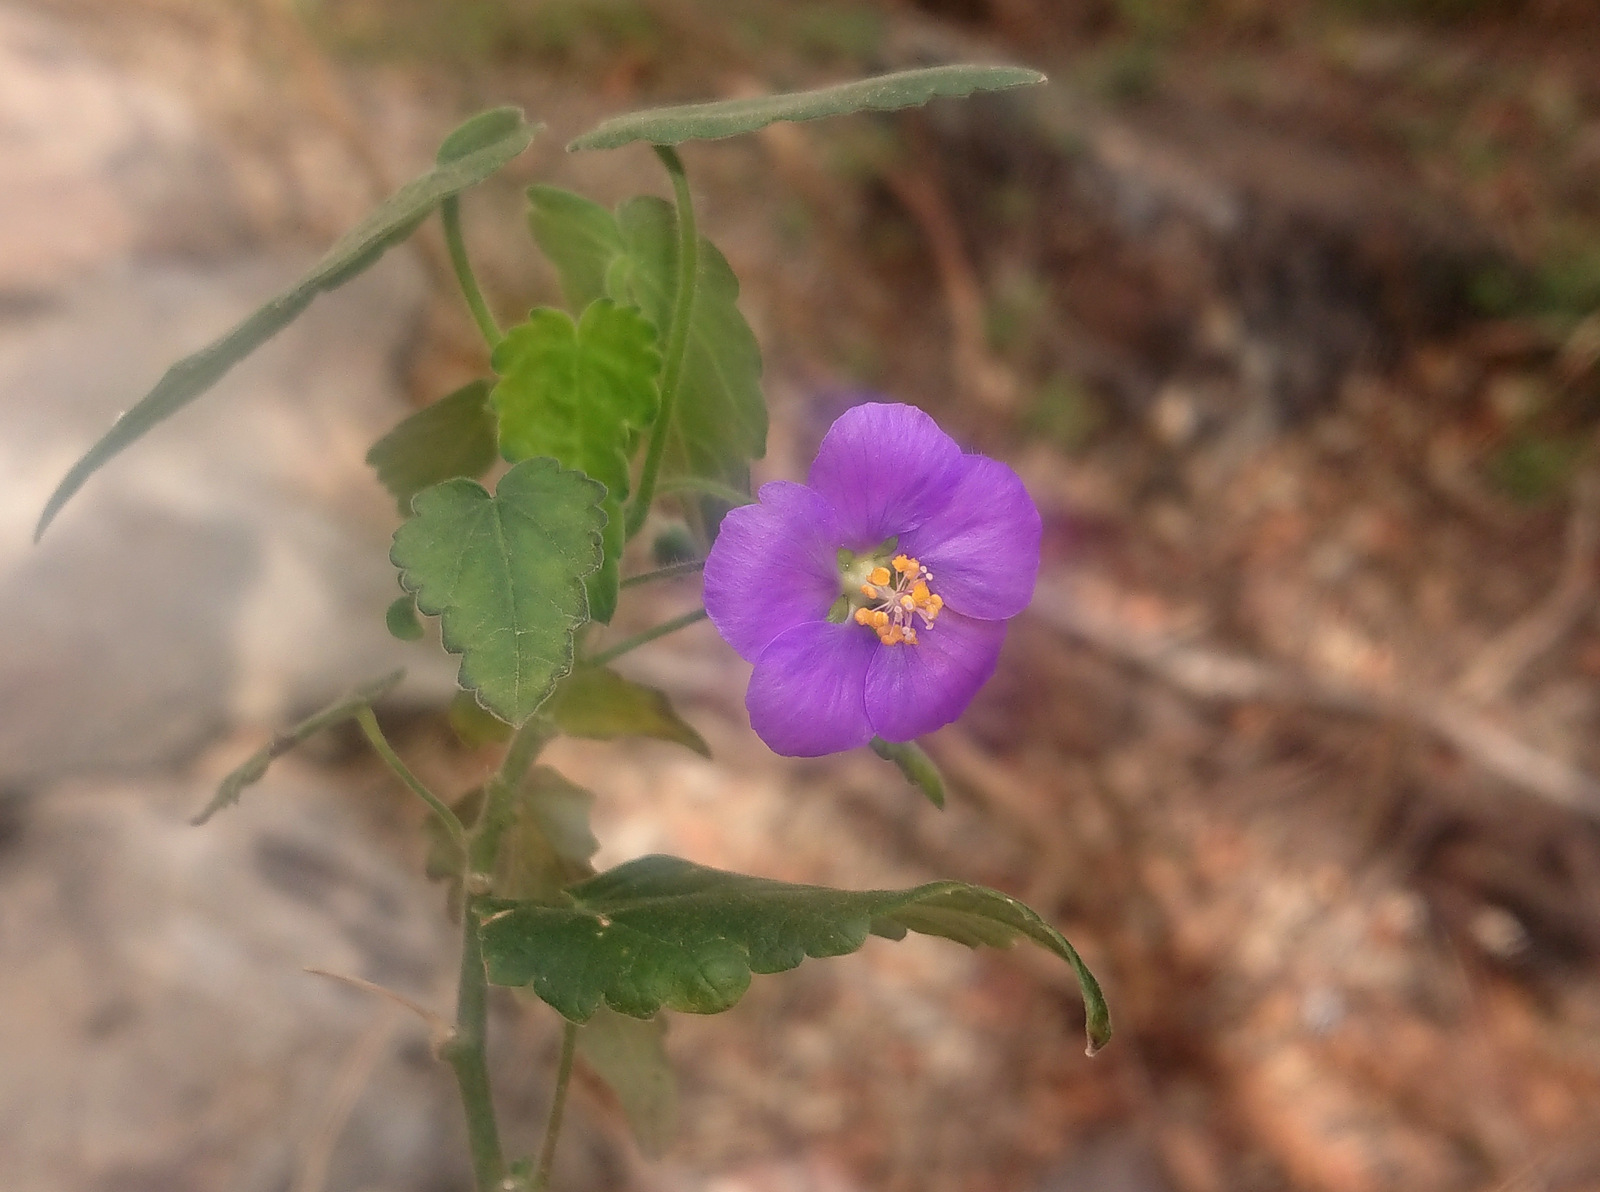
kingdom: Plantae
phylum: Tracheophyta
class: Magnoliopsida
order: Malvales
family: Malvaceae
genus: Batesimalva
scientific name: Batesimalva violacea
